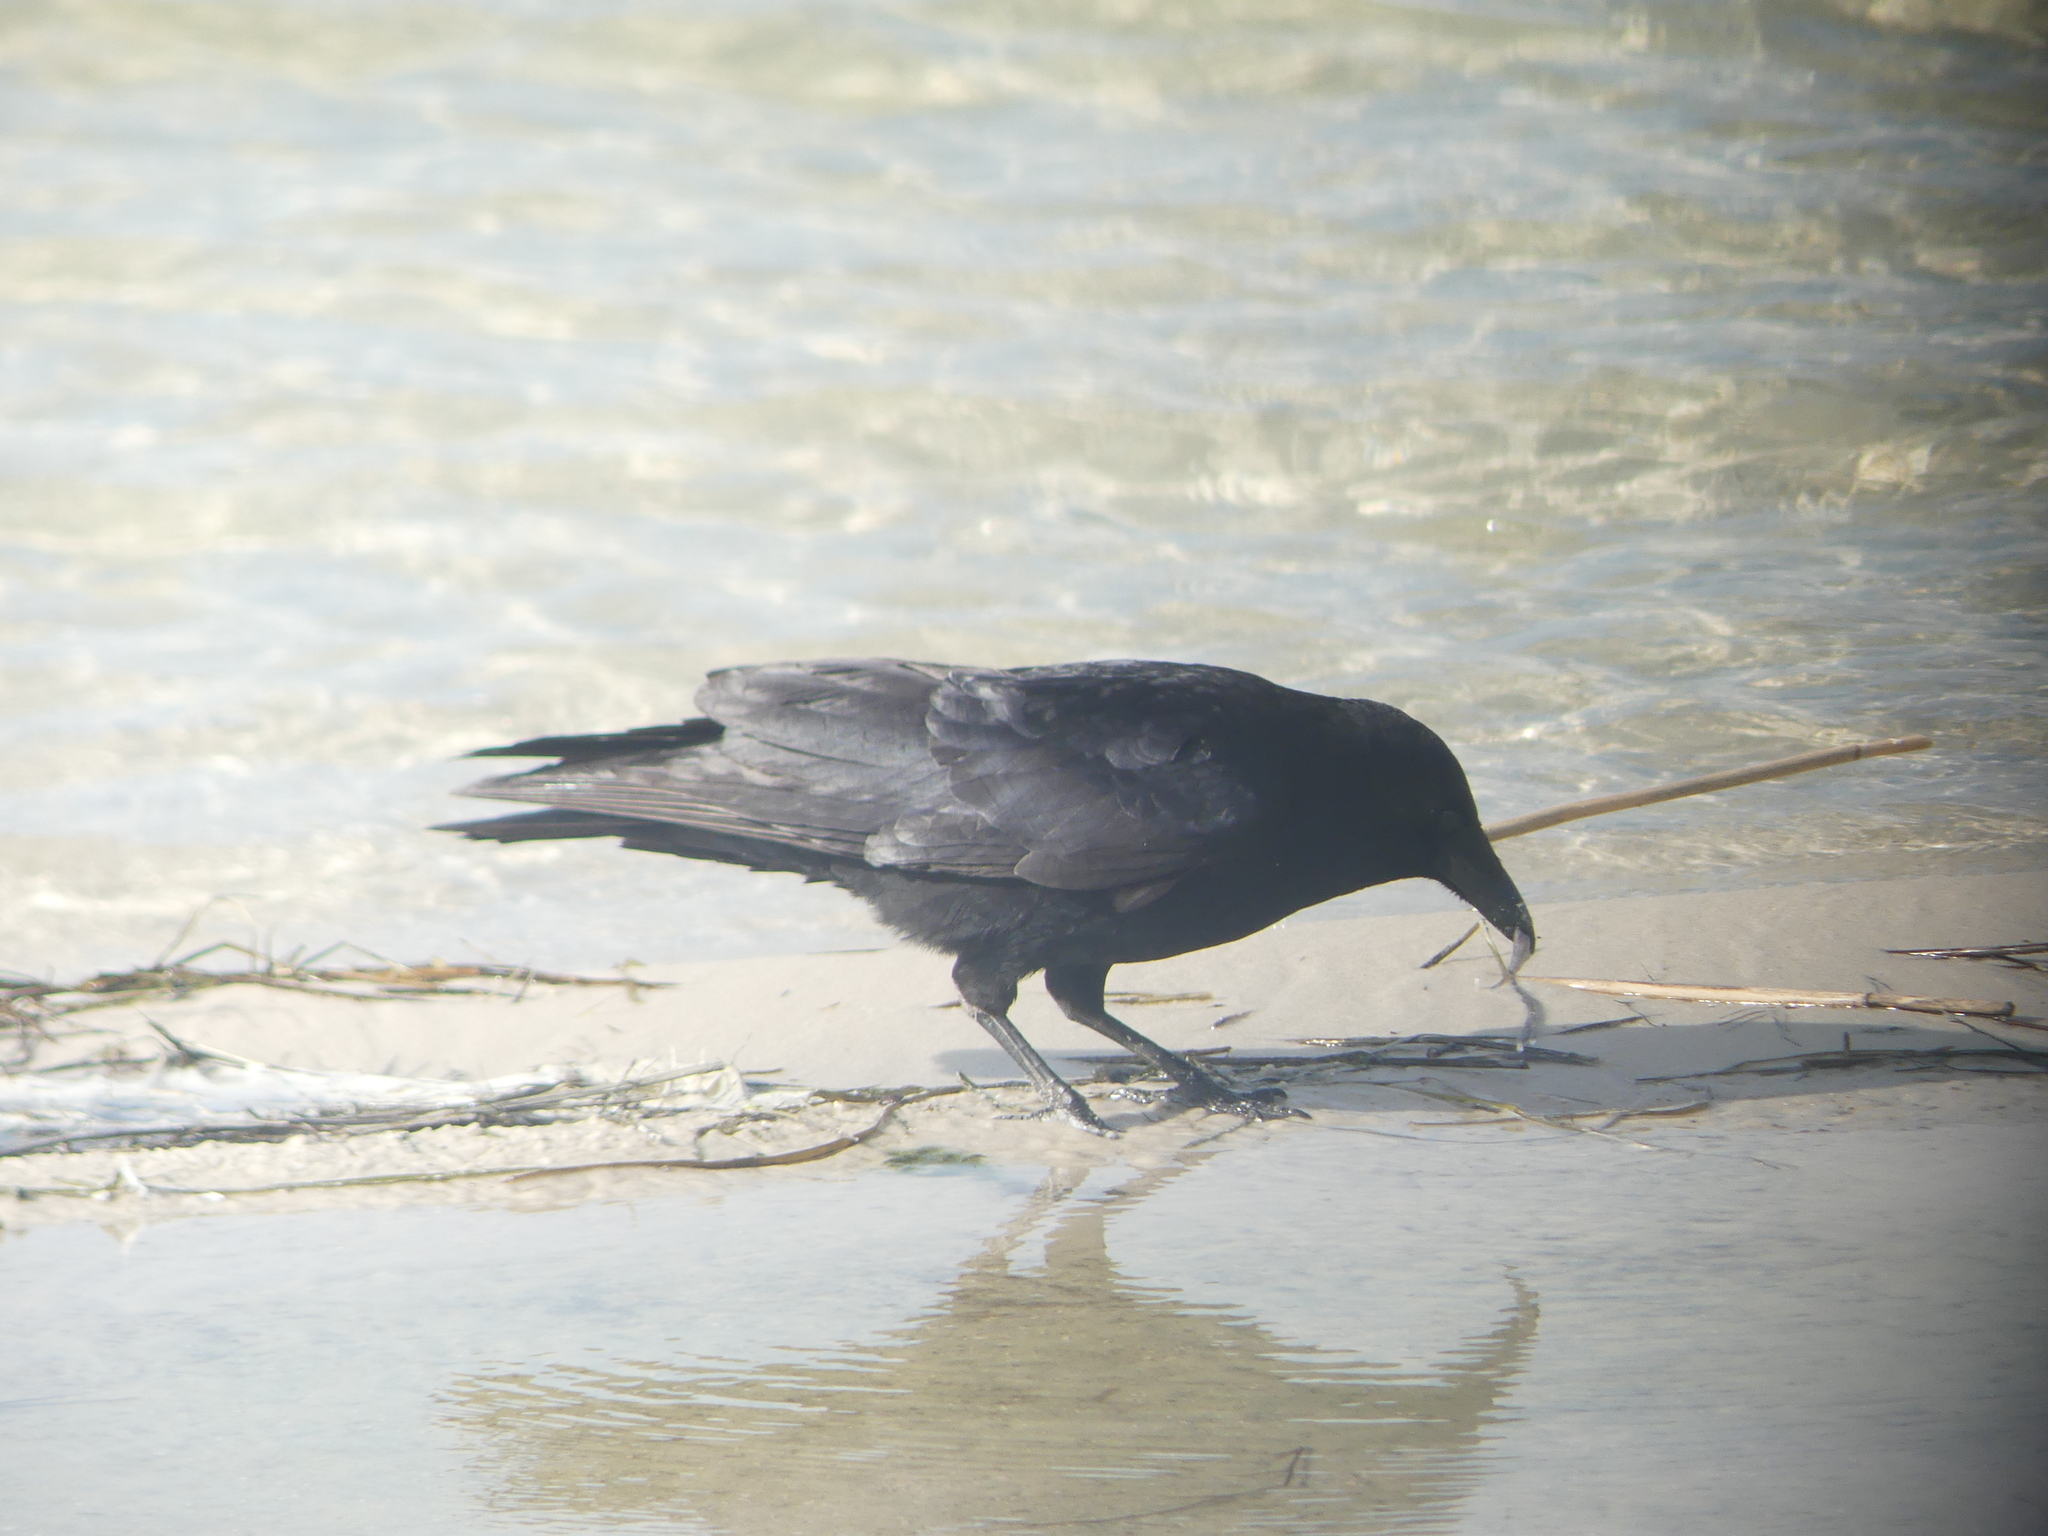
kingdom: Animalia
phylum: Chordata
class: Aves
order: Passeriformes
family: Corvidae
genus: Corvus
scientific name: Corvus corone
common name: Carrion crow
